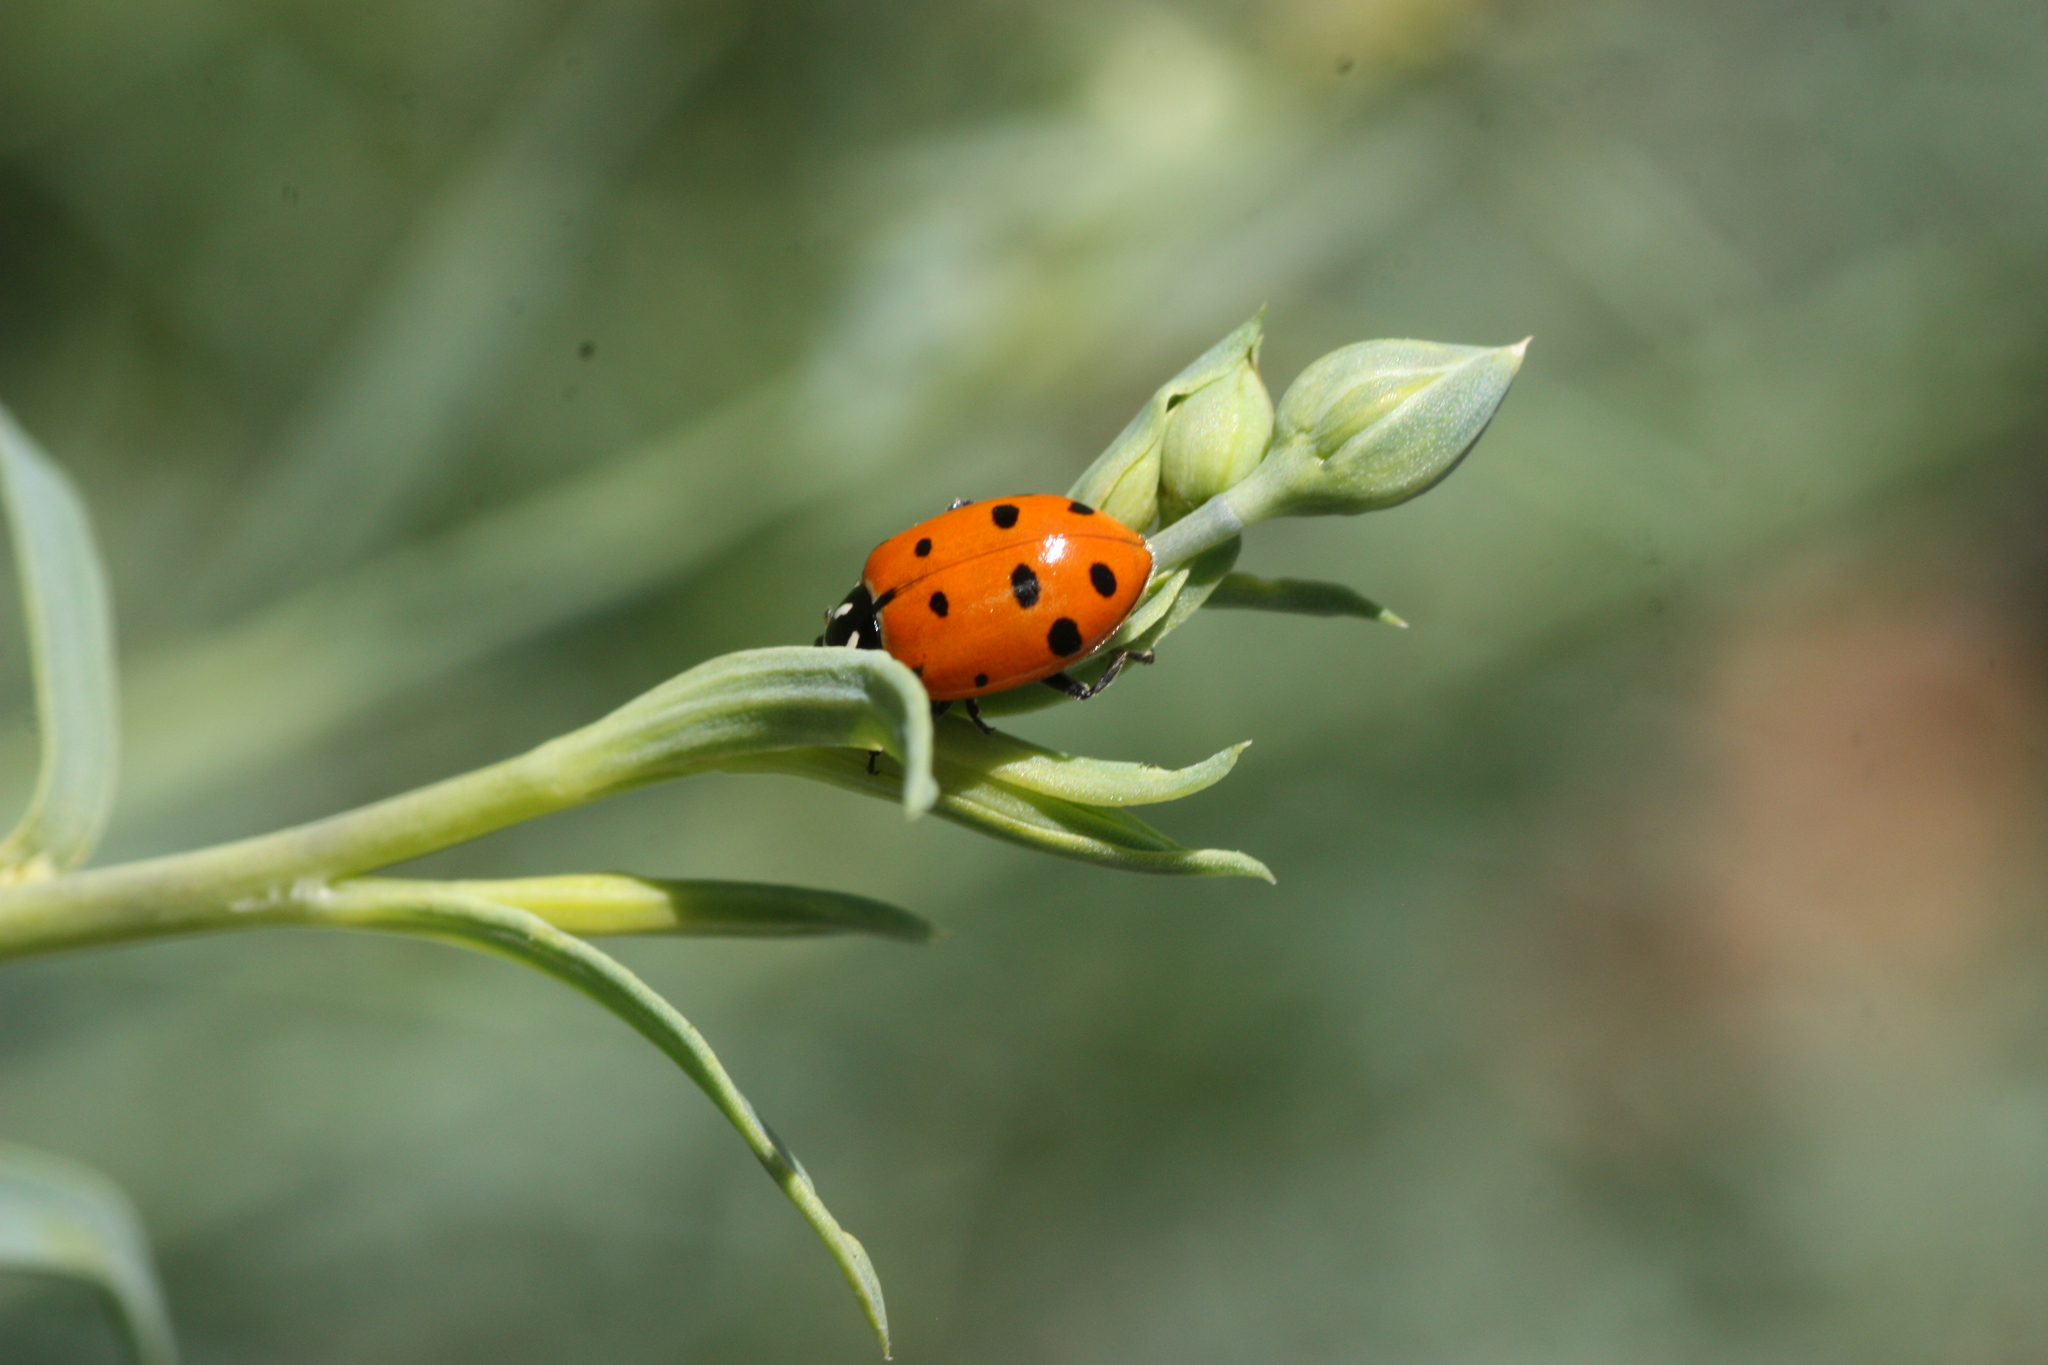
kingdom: Animalia
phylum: Arthropoda
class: Insecta
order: Coleoptera
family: Coccinellidae
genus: Hippodamia
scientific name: Hippodamia convergens
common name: Convergent lady beetle
